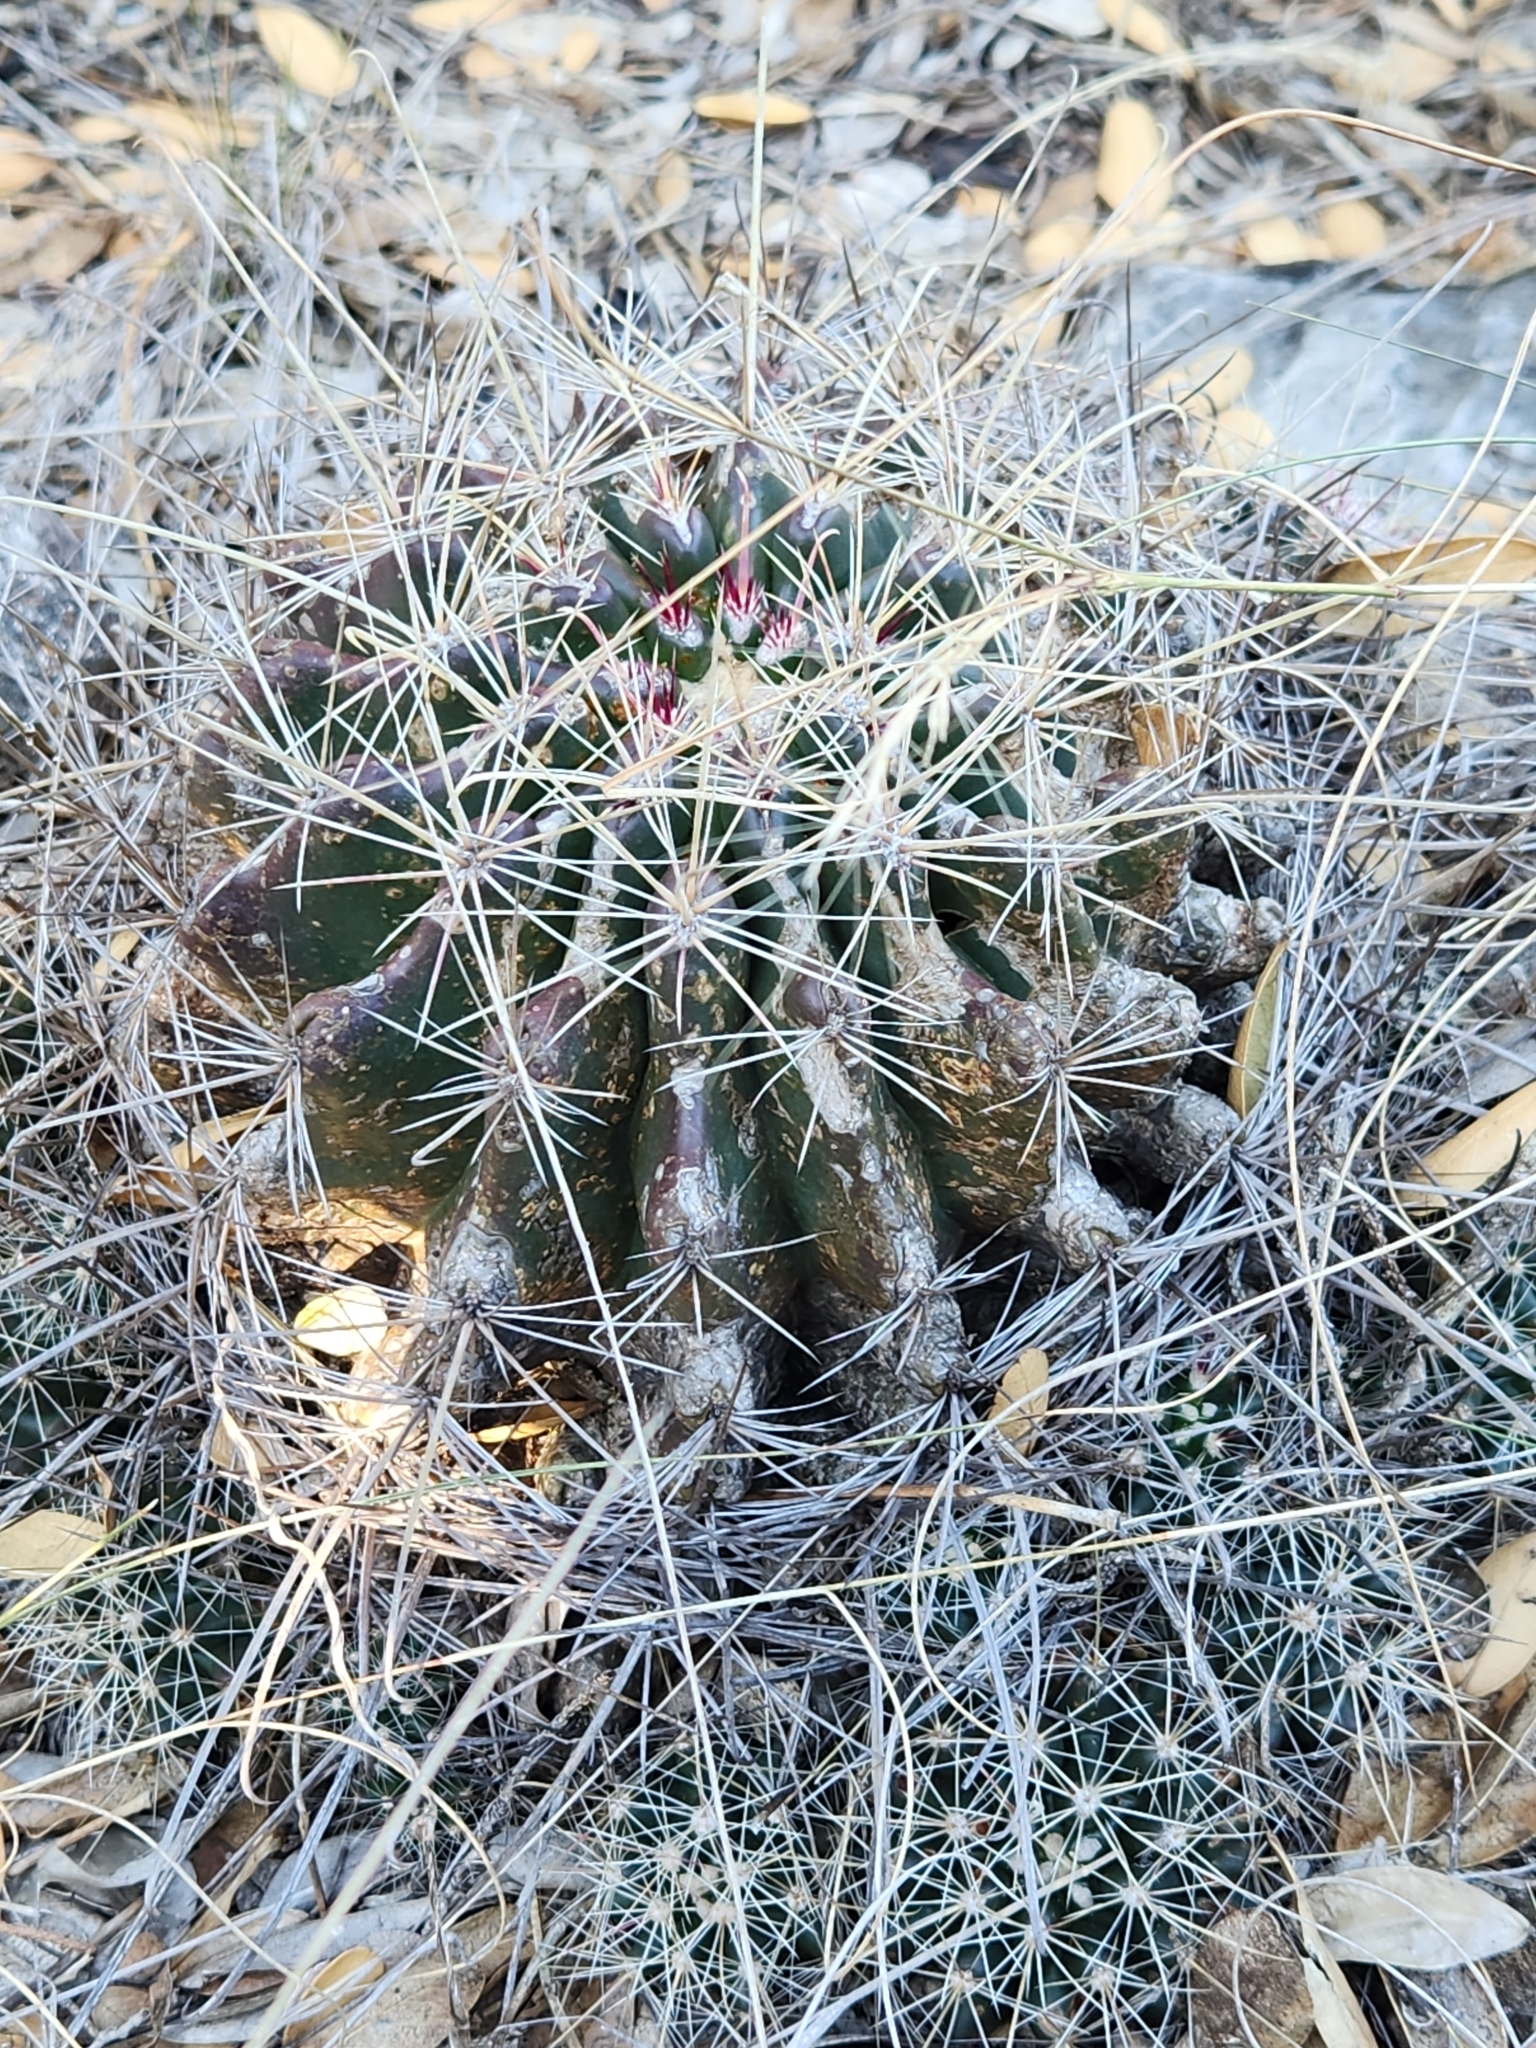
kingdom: Plantae
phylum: Tracheophyta
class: Magnoliopsida
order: Caryophyllales
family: Cactaceae
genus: Bisnaga
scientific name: Bisnaga hamatacantha
